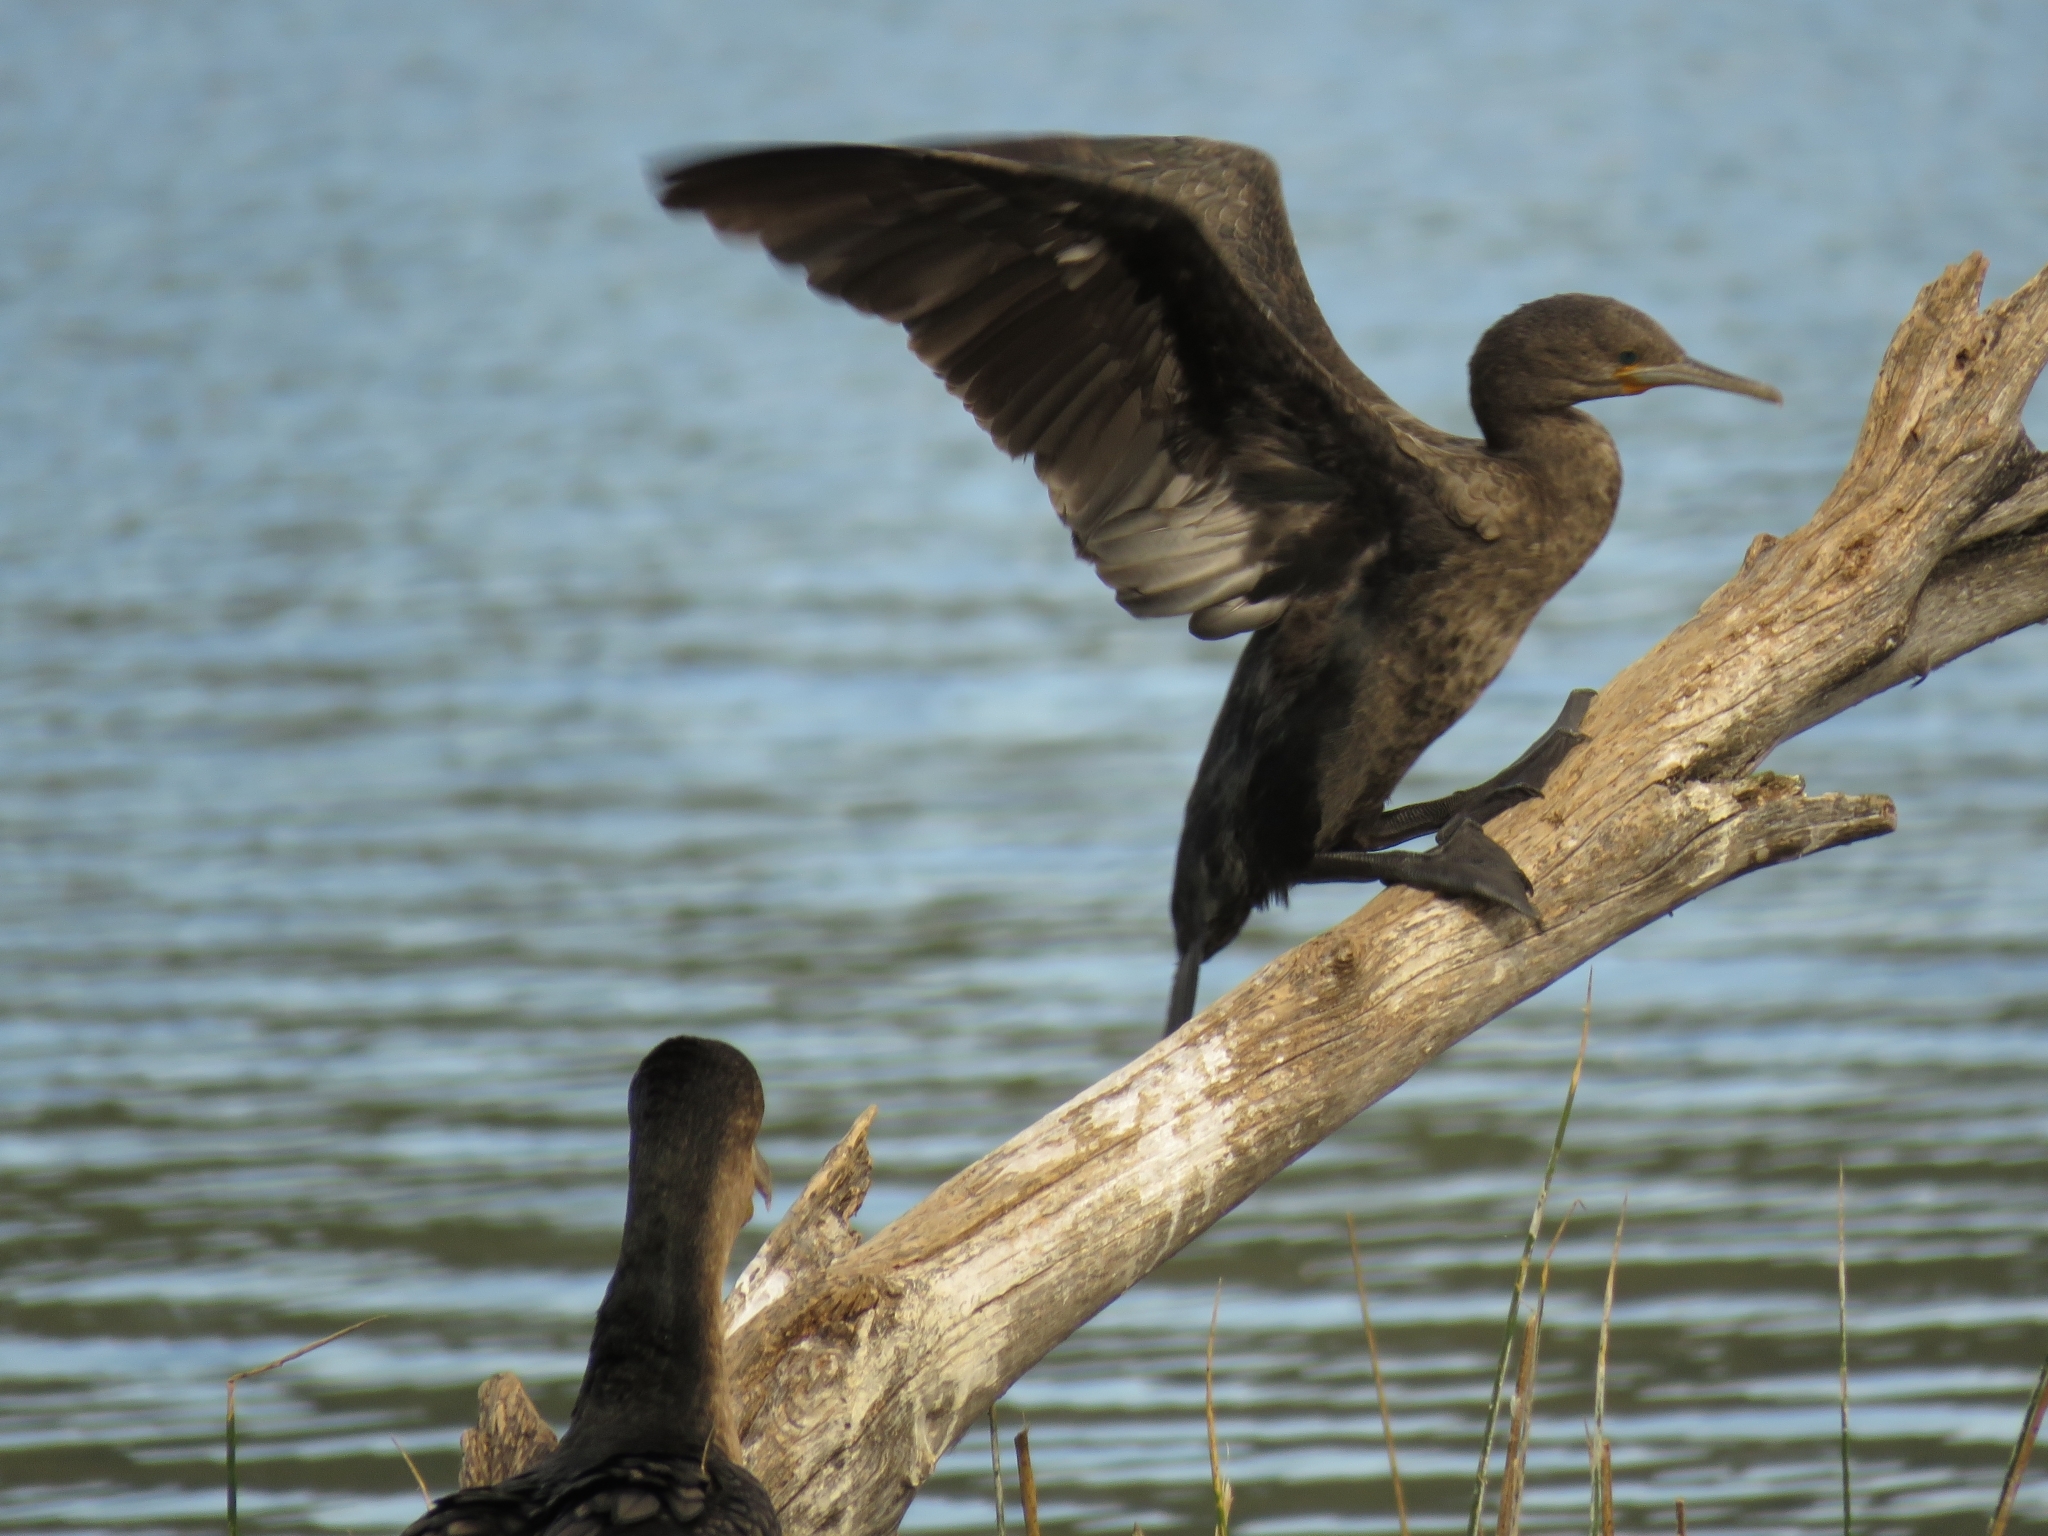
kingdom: Animalia
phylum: Chordata
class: Aves
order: Suliformes
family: Phalacrocoracidae
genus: Phalacrocorax
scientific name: Phalacrocorax capensis
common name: Cape cormorant
